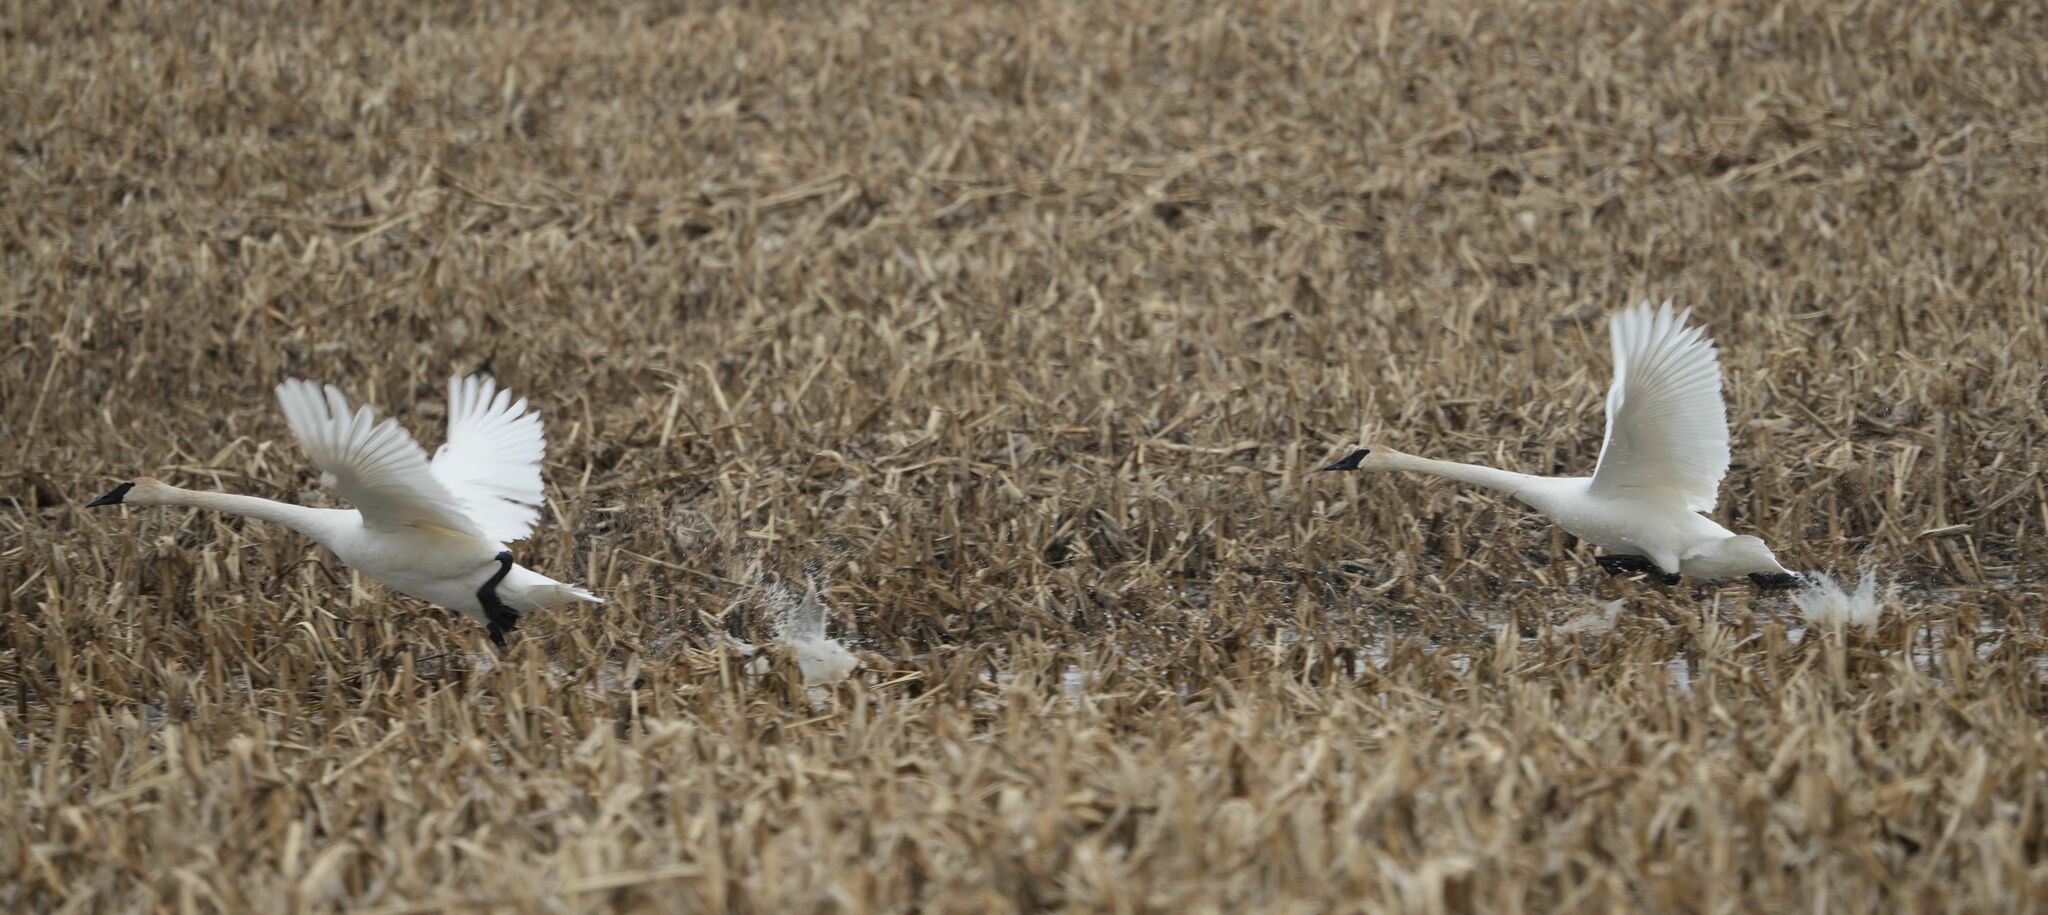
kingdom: Animalia
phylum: Chordata
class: Aves
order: Anseriformes
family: Anatidae
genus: Cygnus
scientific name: Cygnus buccinator
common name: Trumpeter swan
